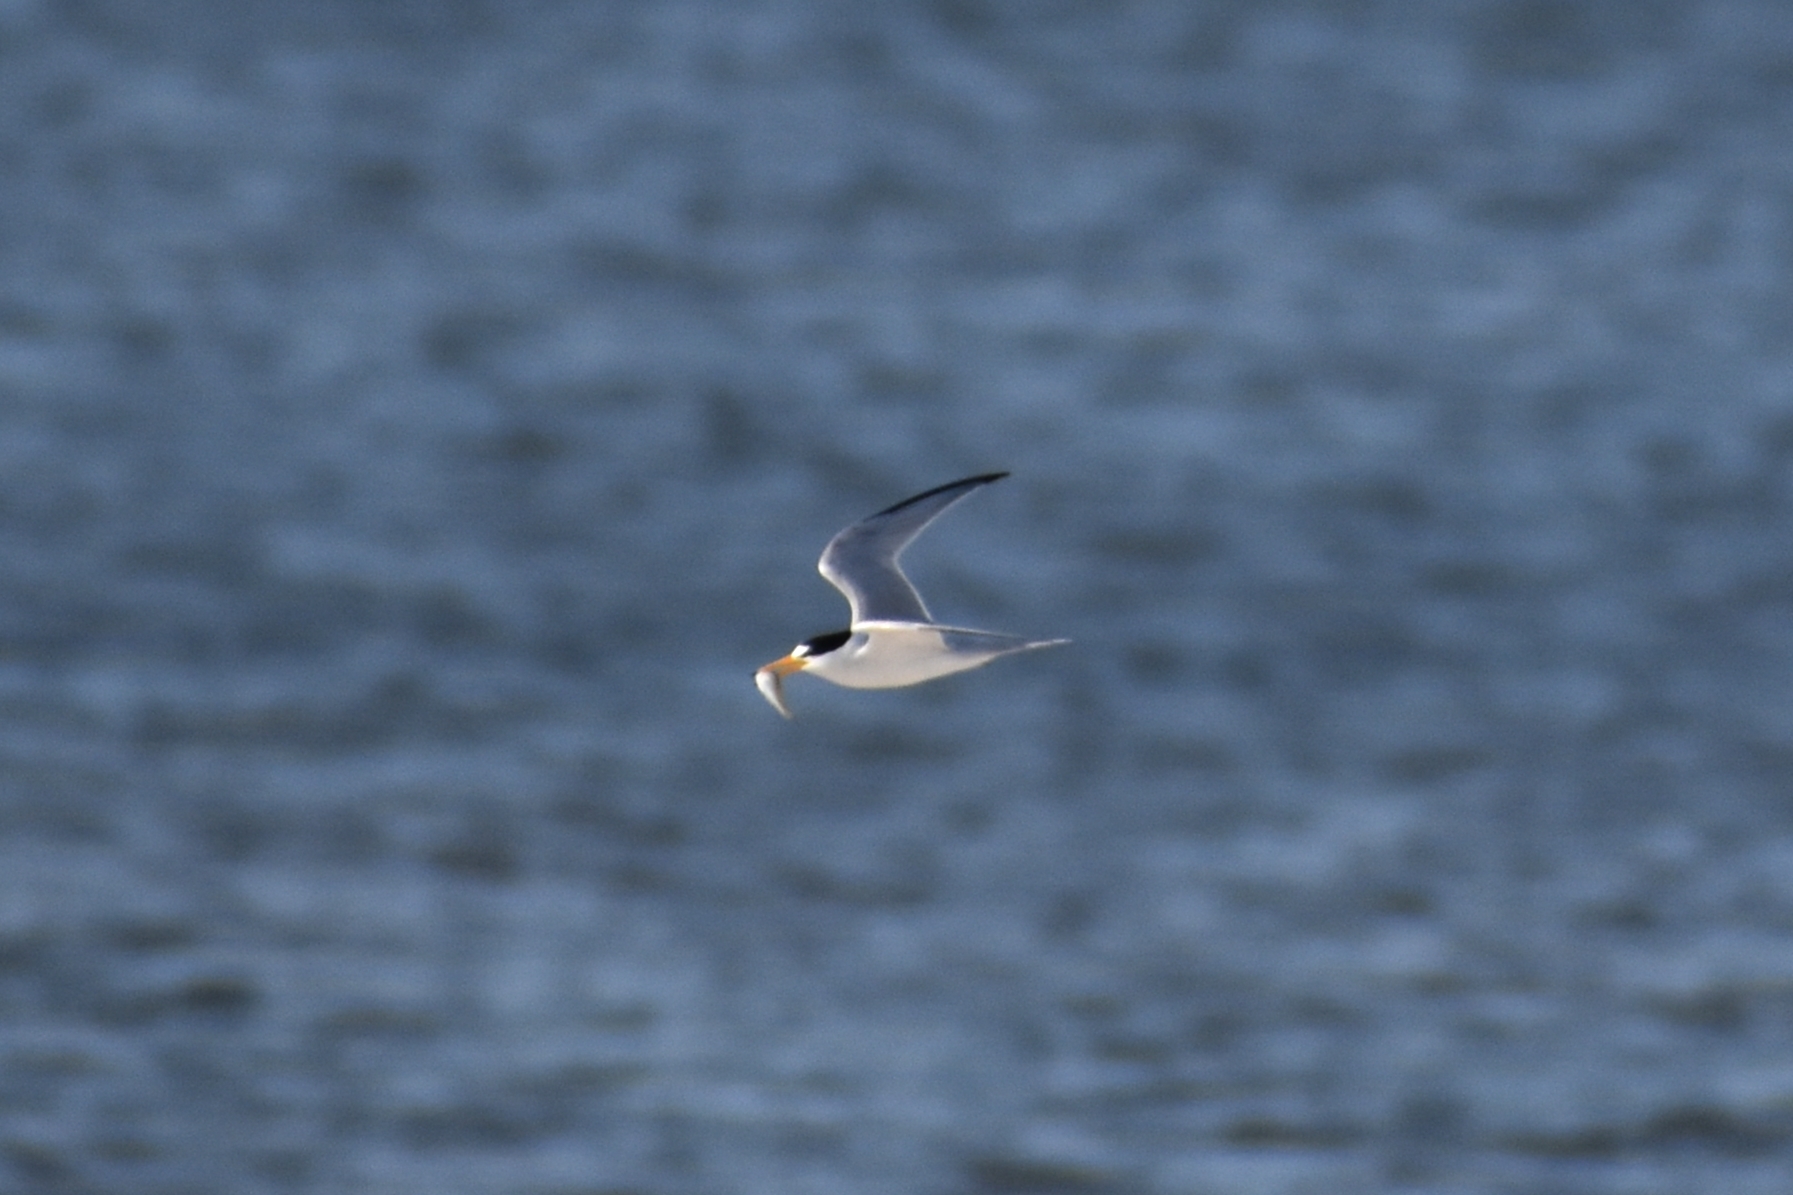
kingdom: Animalia
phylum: Chordata
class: Aves
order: Charadriiformes
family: Laridae
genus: Sternula
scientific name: Sternula antillarum
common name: Least tern
